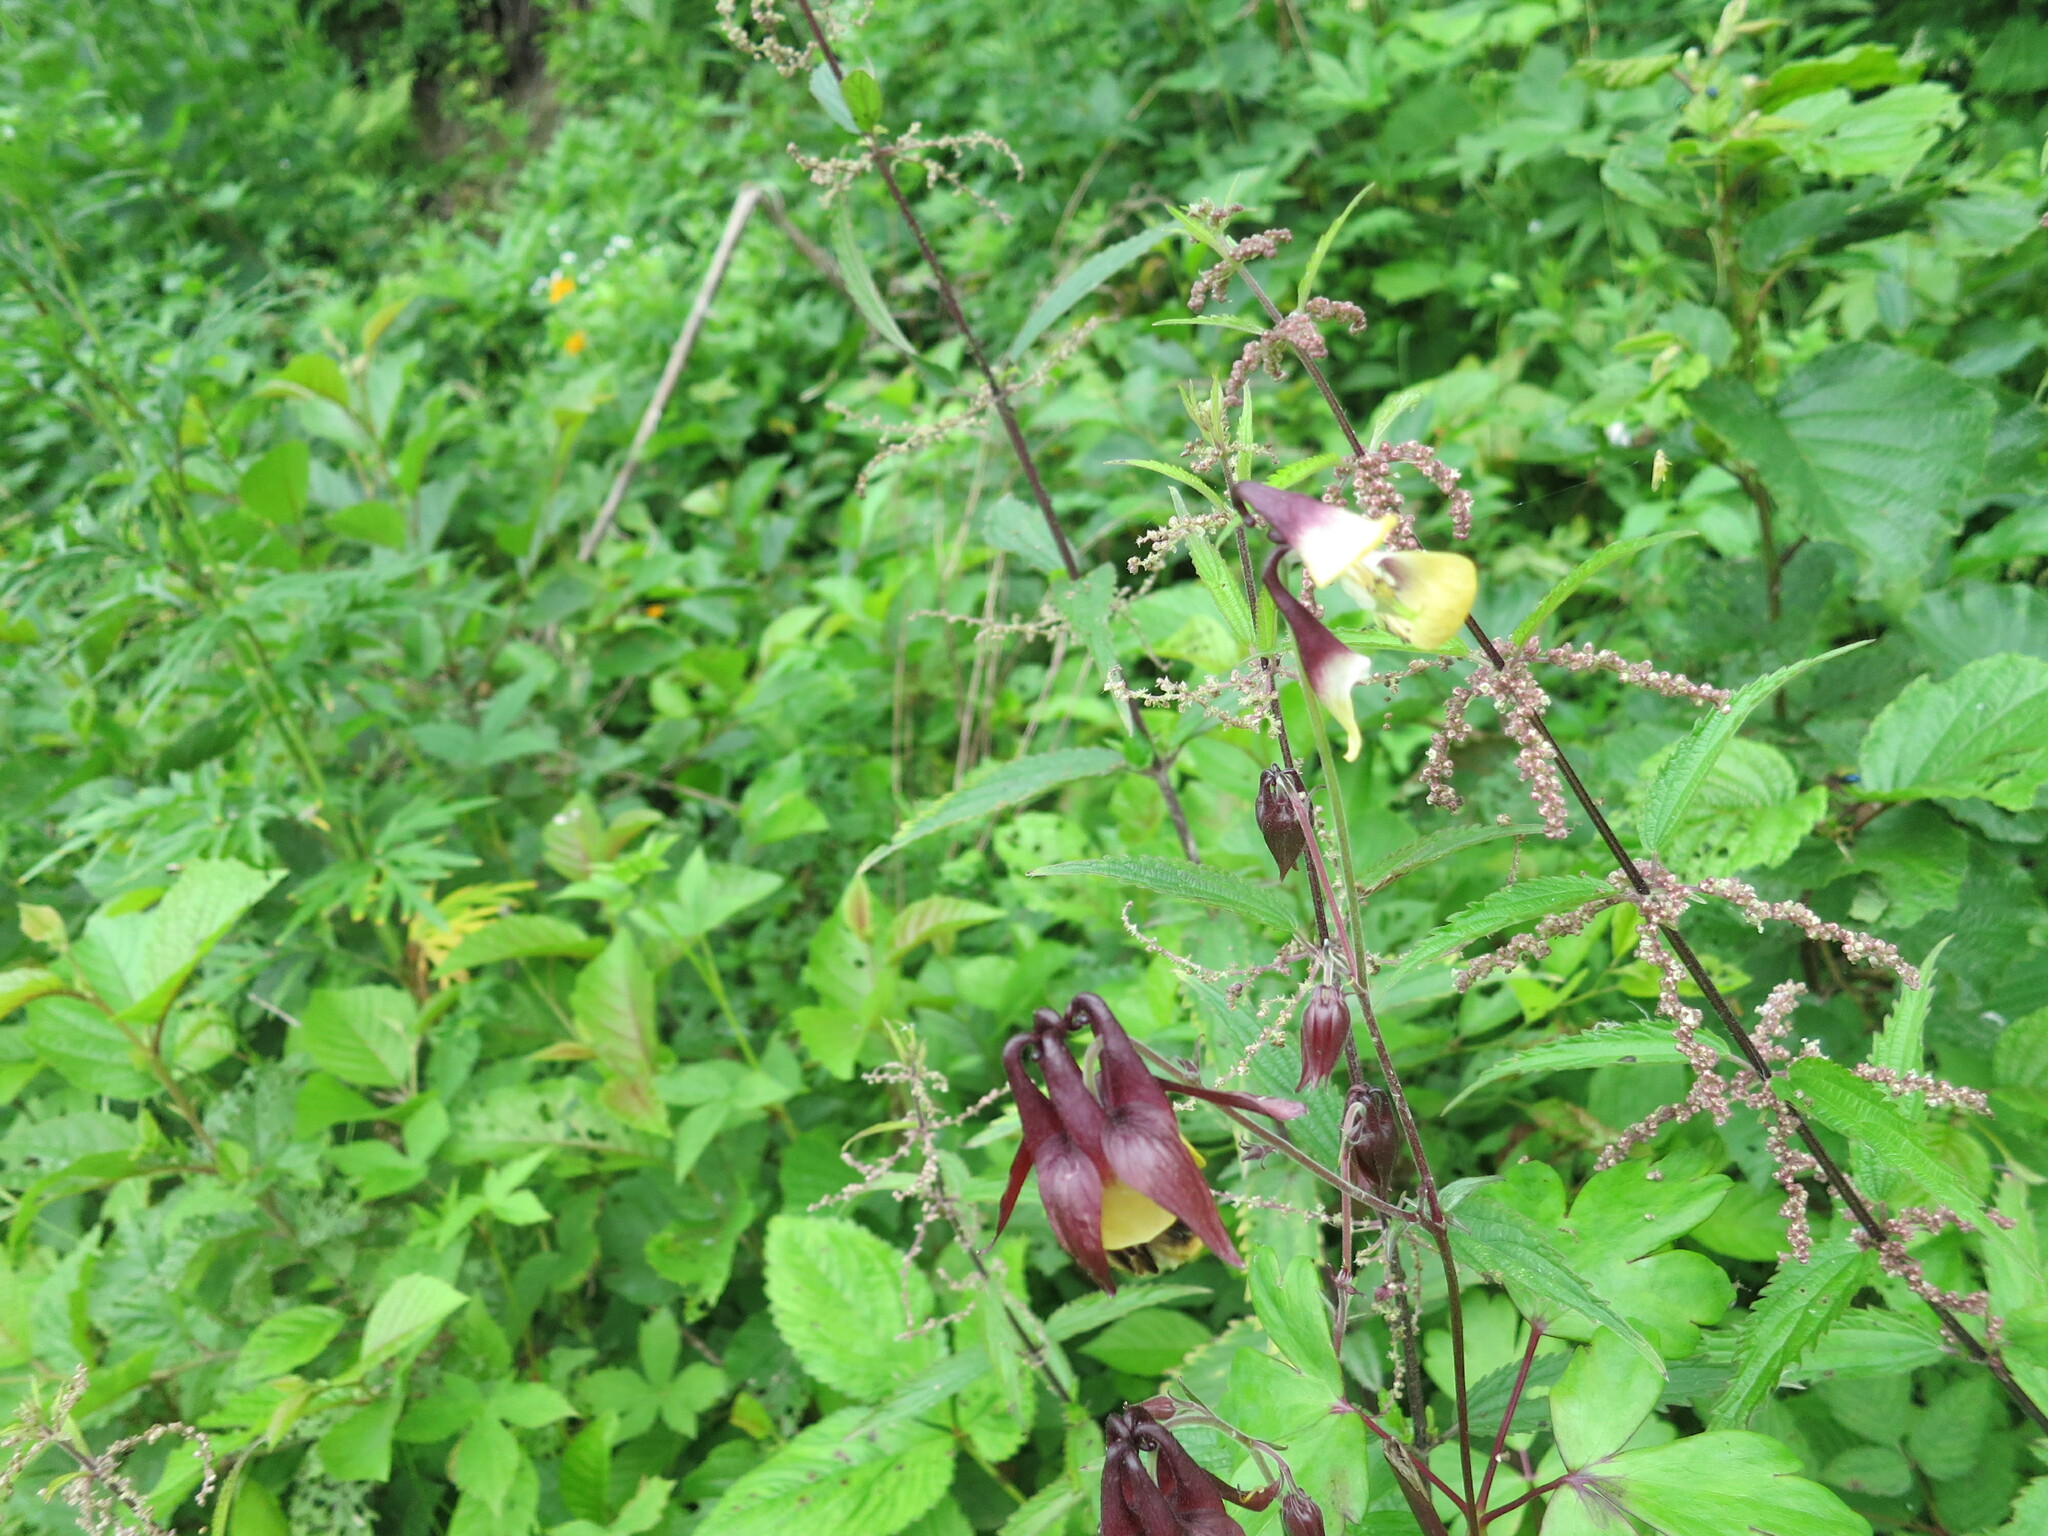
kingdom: Plantae
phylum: Tracheophyta
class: Magnoliopsida
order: Ranunculales
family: Ranunculaceae
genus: Aquilegia
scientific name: Aquilegia oxysepala
